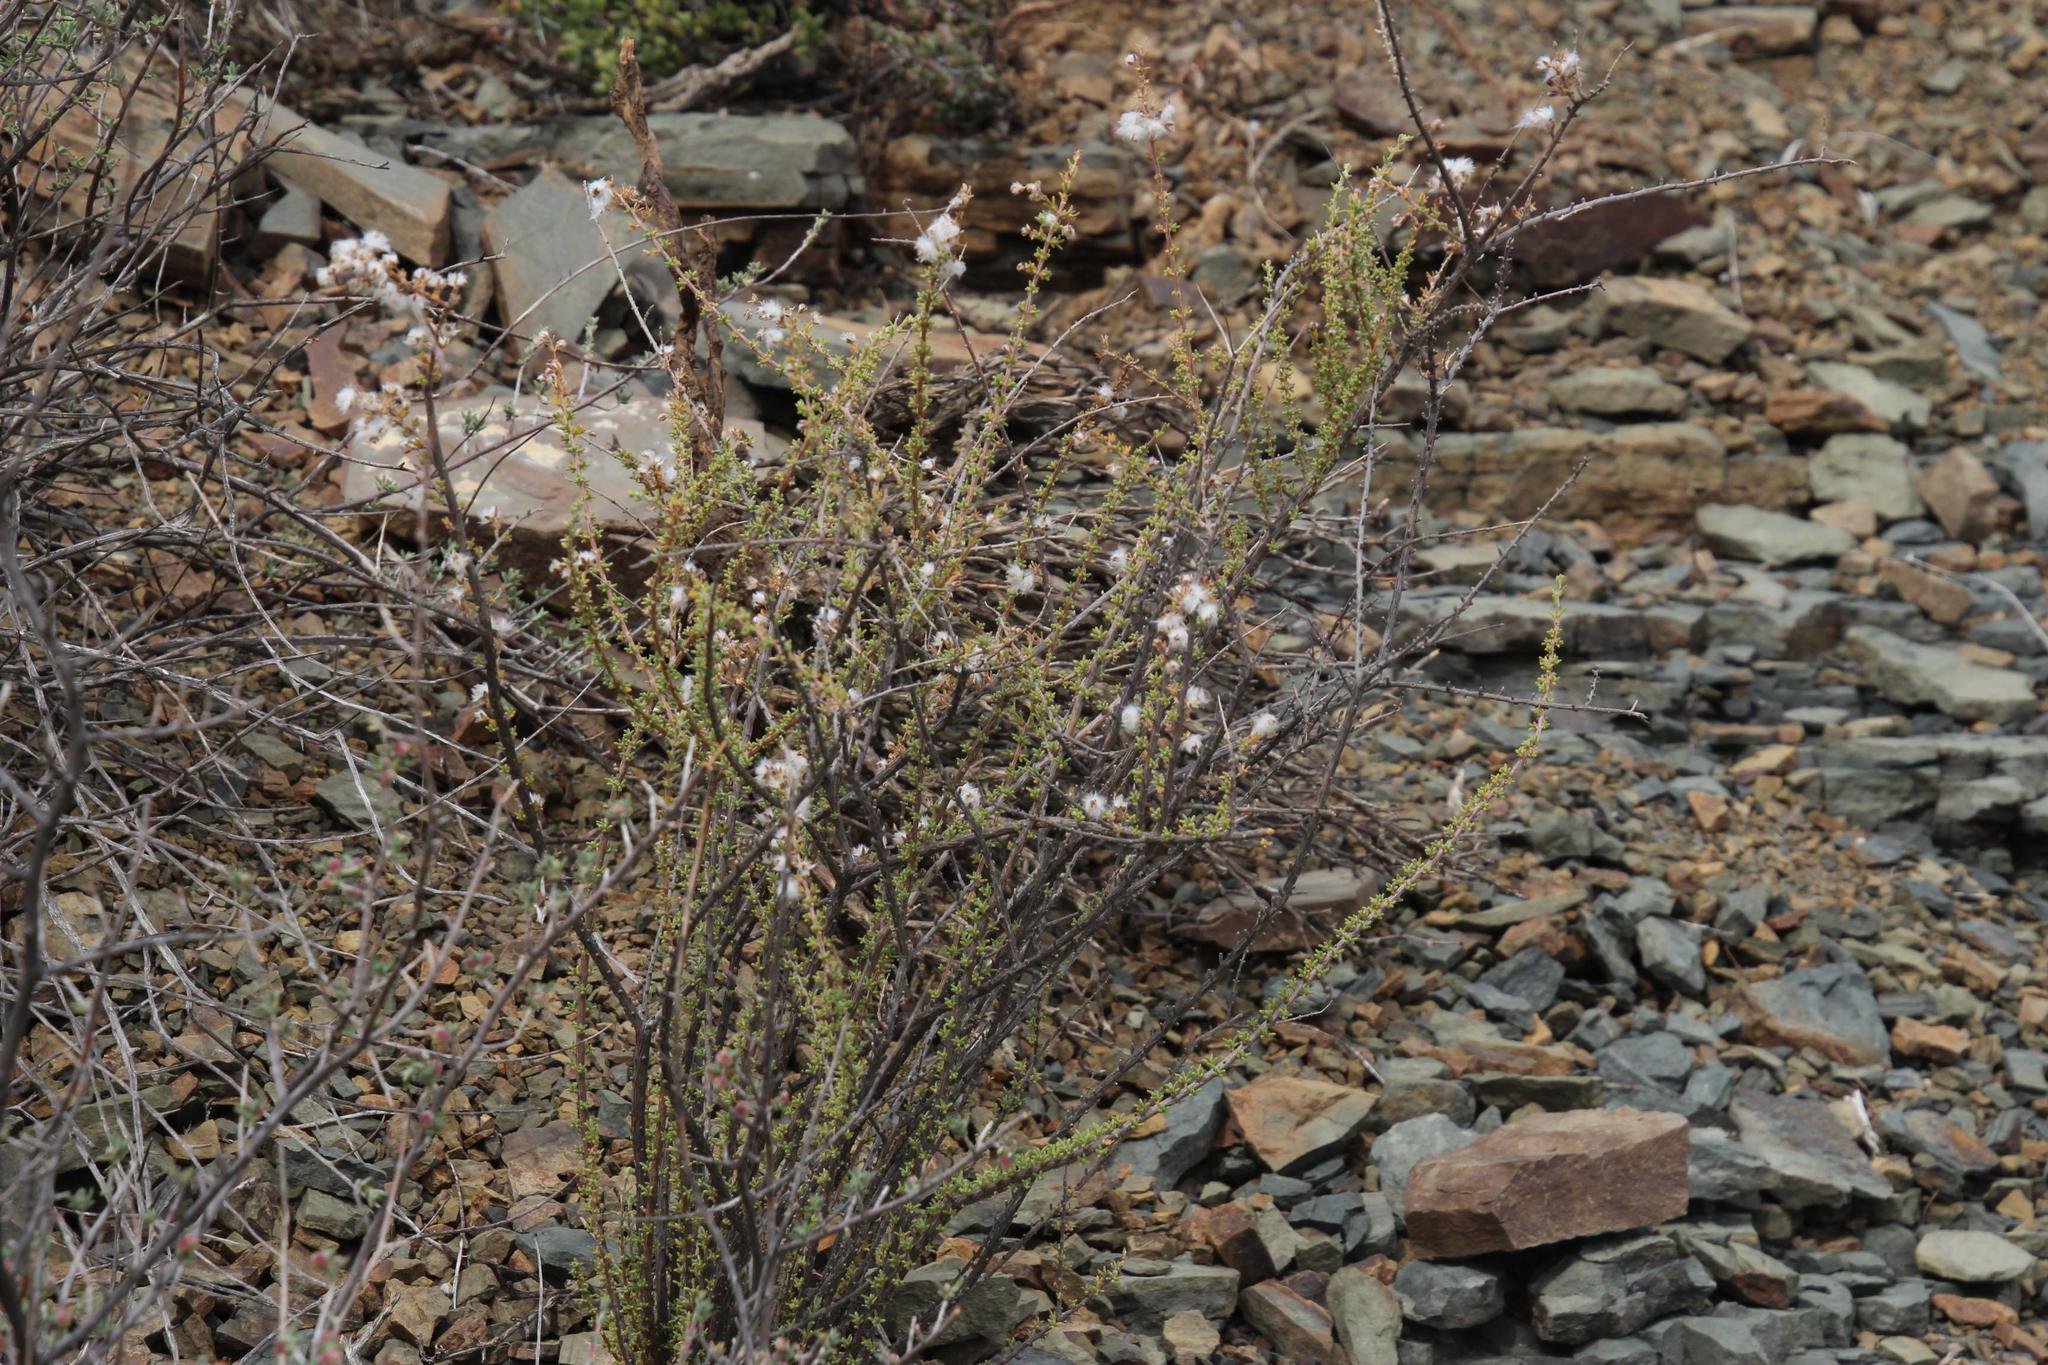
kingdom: Plantae
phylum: Tracheophyta
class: Magnoliopsida
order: Asterales
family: Asteraceae
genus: Eriocephalus
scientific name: Eriocephalus ericoides
